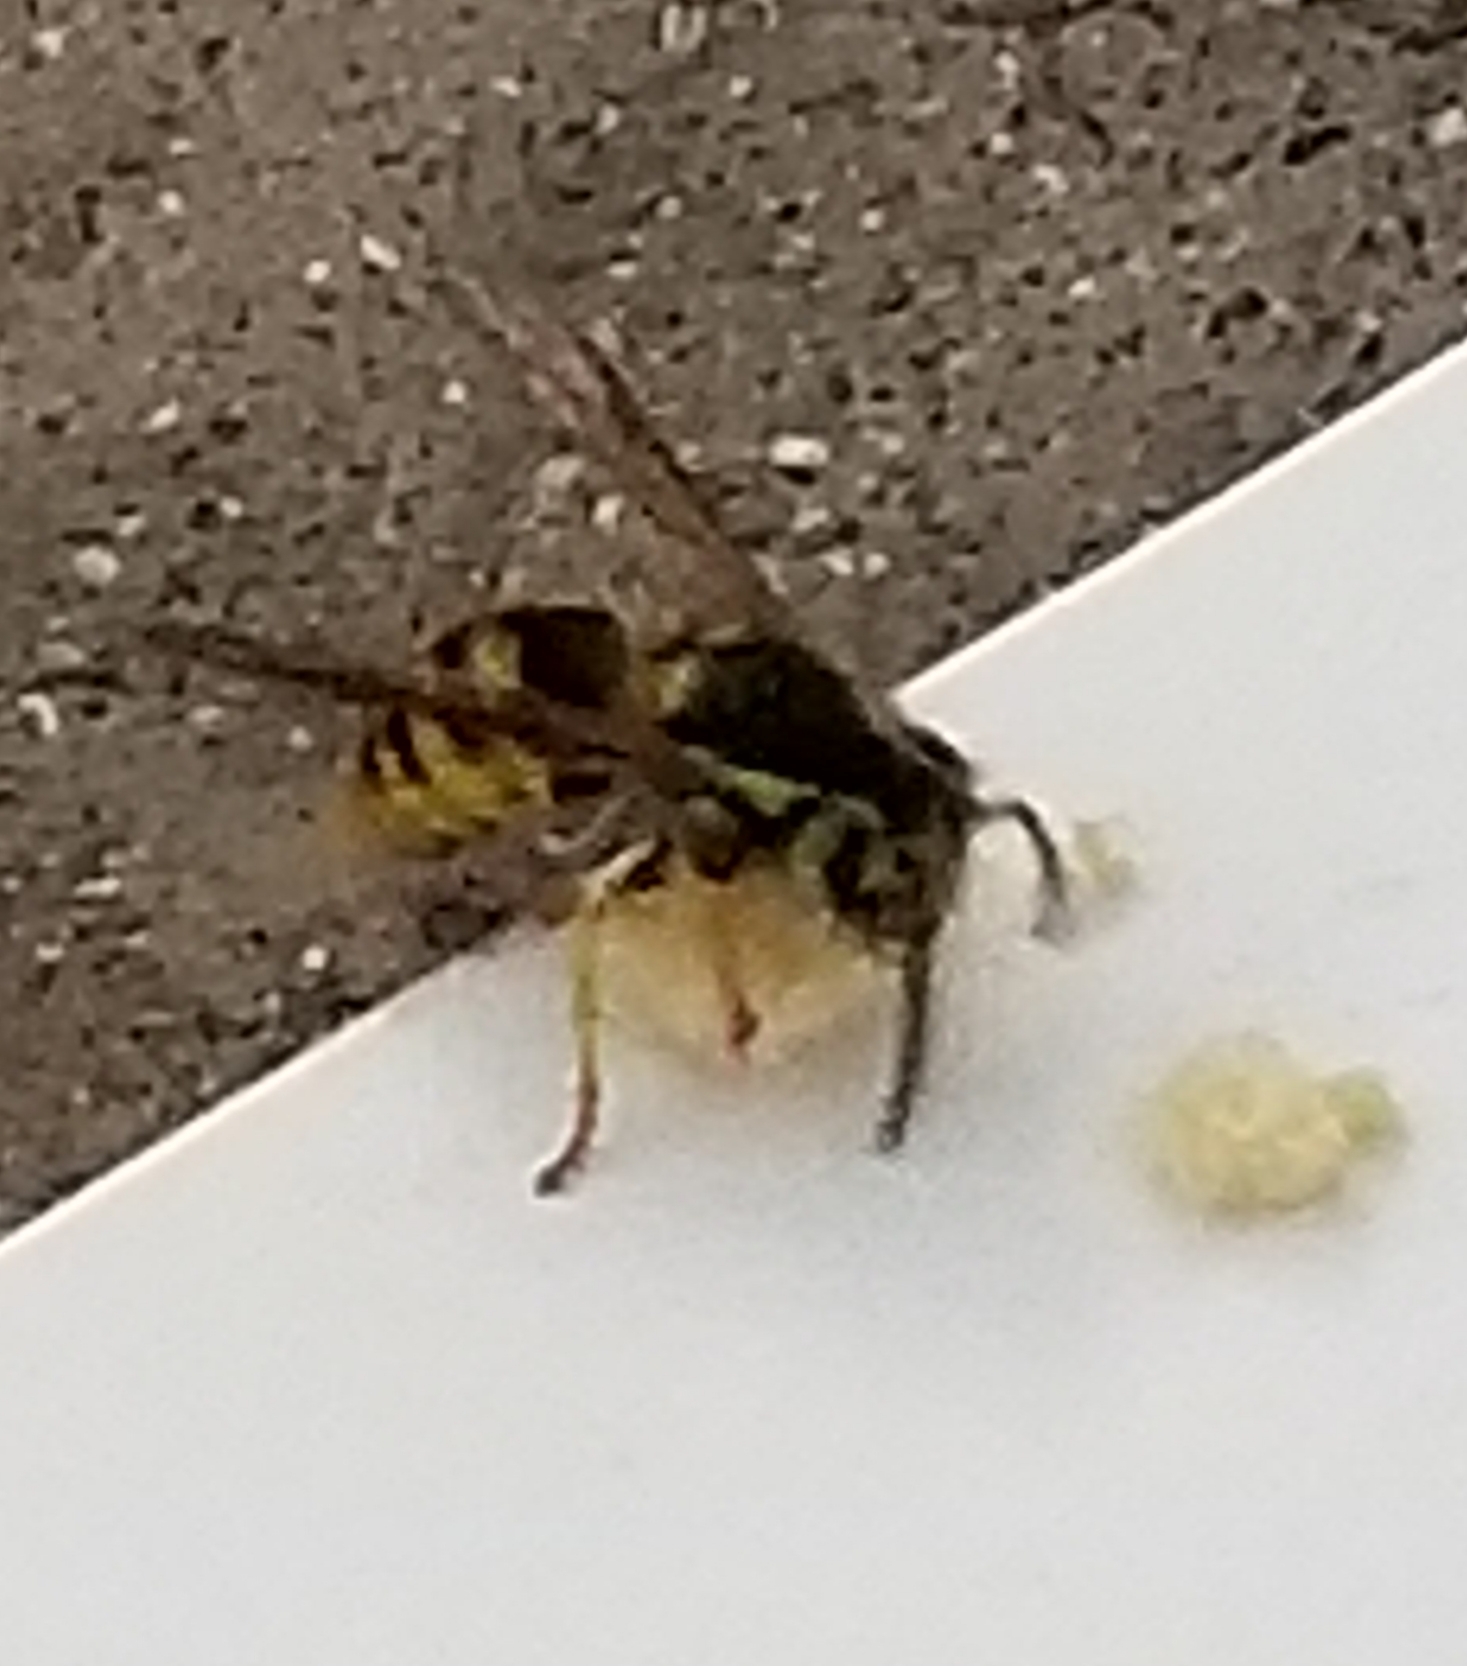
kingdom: Animalia
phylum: Arthropoda
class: Insecta
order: Hymenoptera
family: Vespidae
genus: Vespula
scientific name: Vespula pensylvanica
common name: Western yellowjacket
